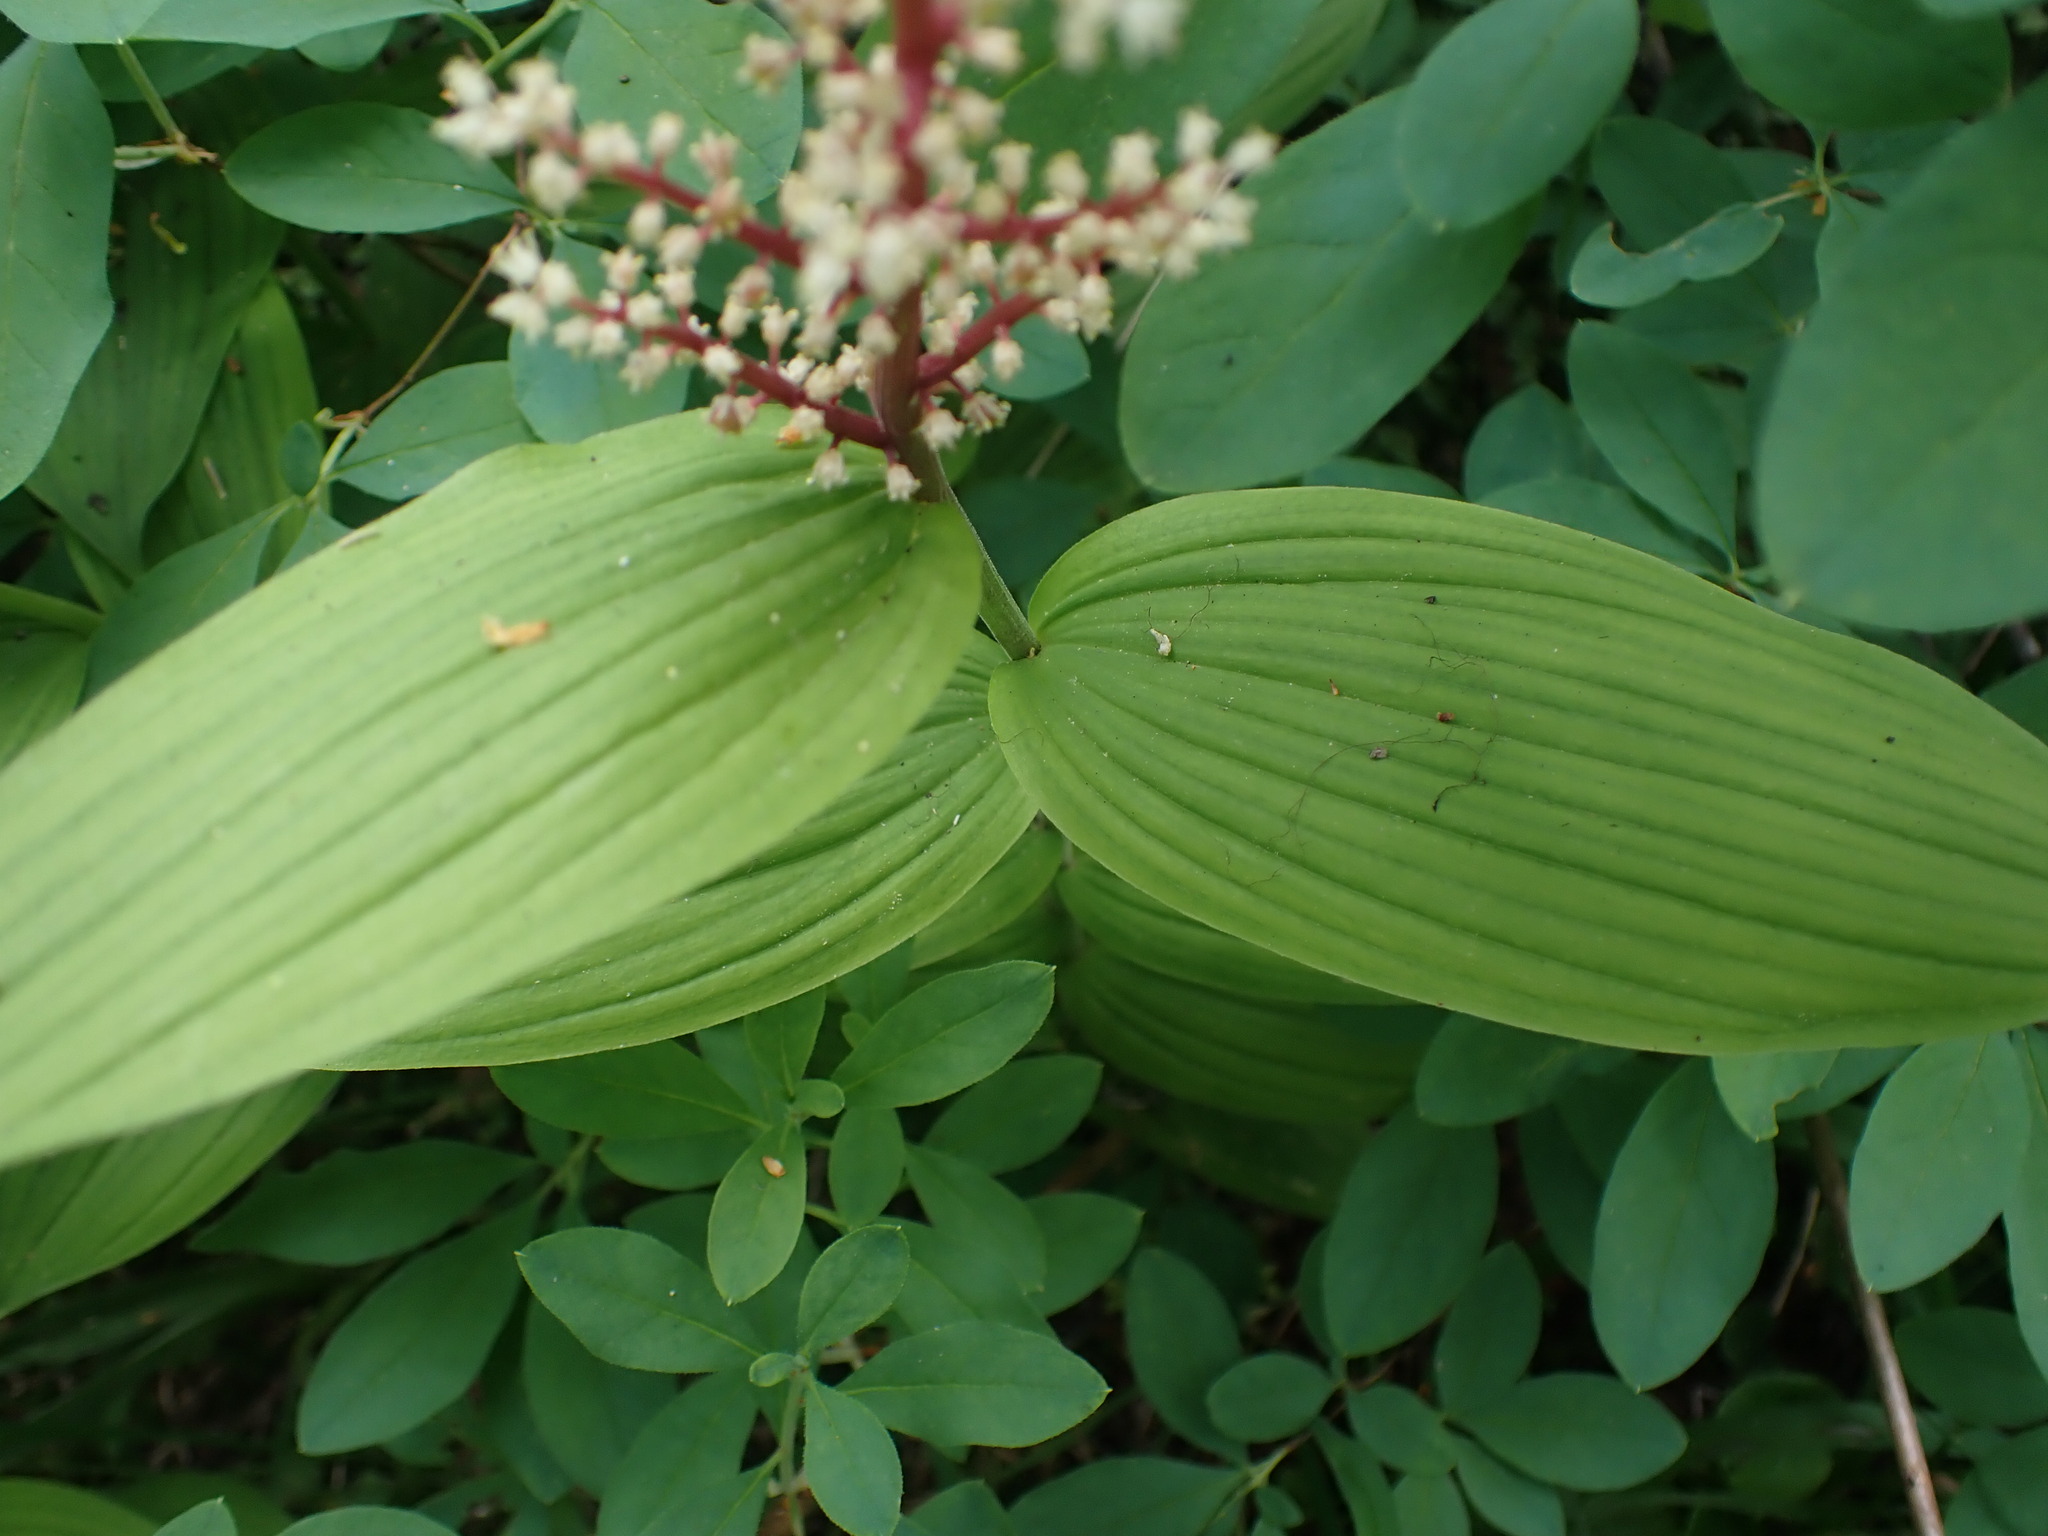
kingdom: Plantae
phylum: Tracheophyta
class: Liliopsida
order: Asparagales
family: Asparagaceae
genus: Maianthemum
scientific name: Maianthemum racemosum
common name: False spikenard
